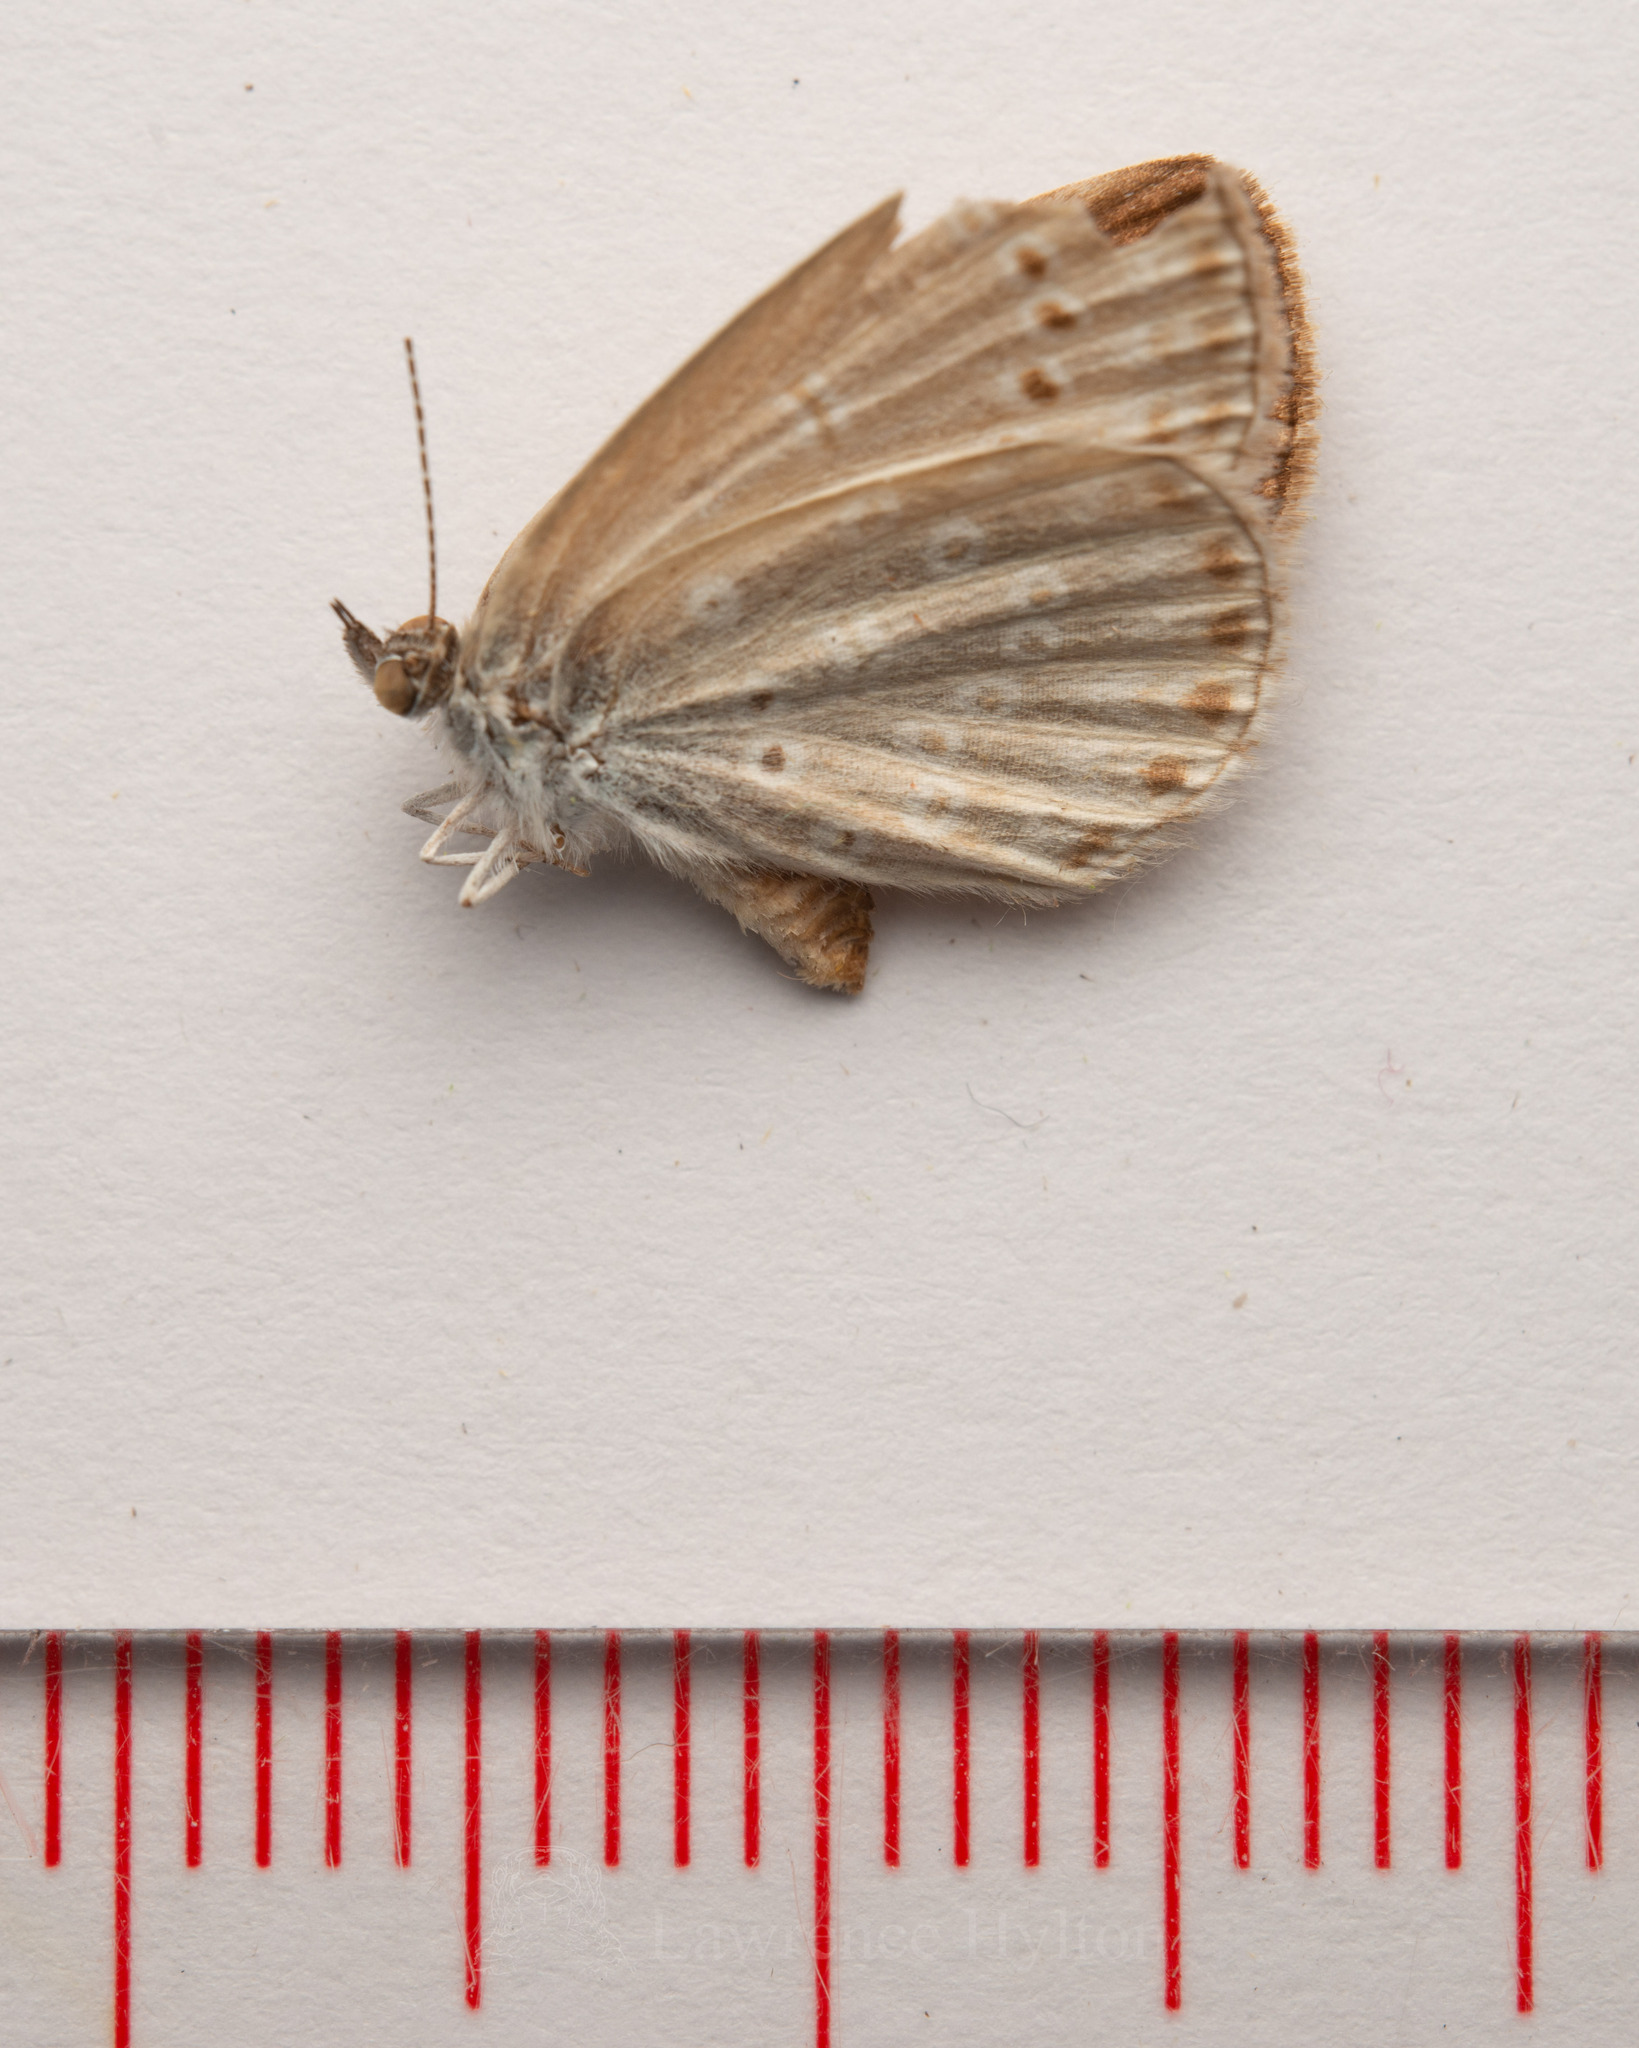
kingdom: Animalia
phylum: Arthropoda
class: Insecta
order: Lepidoptera
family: Lycaenidae
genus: Pseudozizeeria
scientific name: Pseudozizeeria maha
